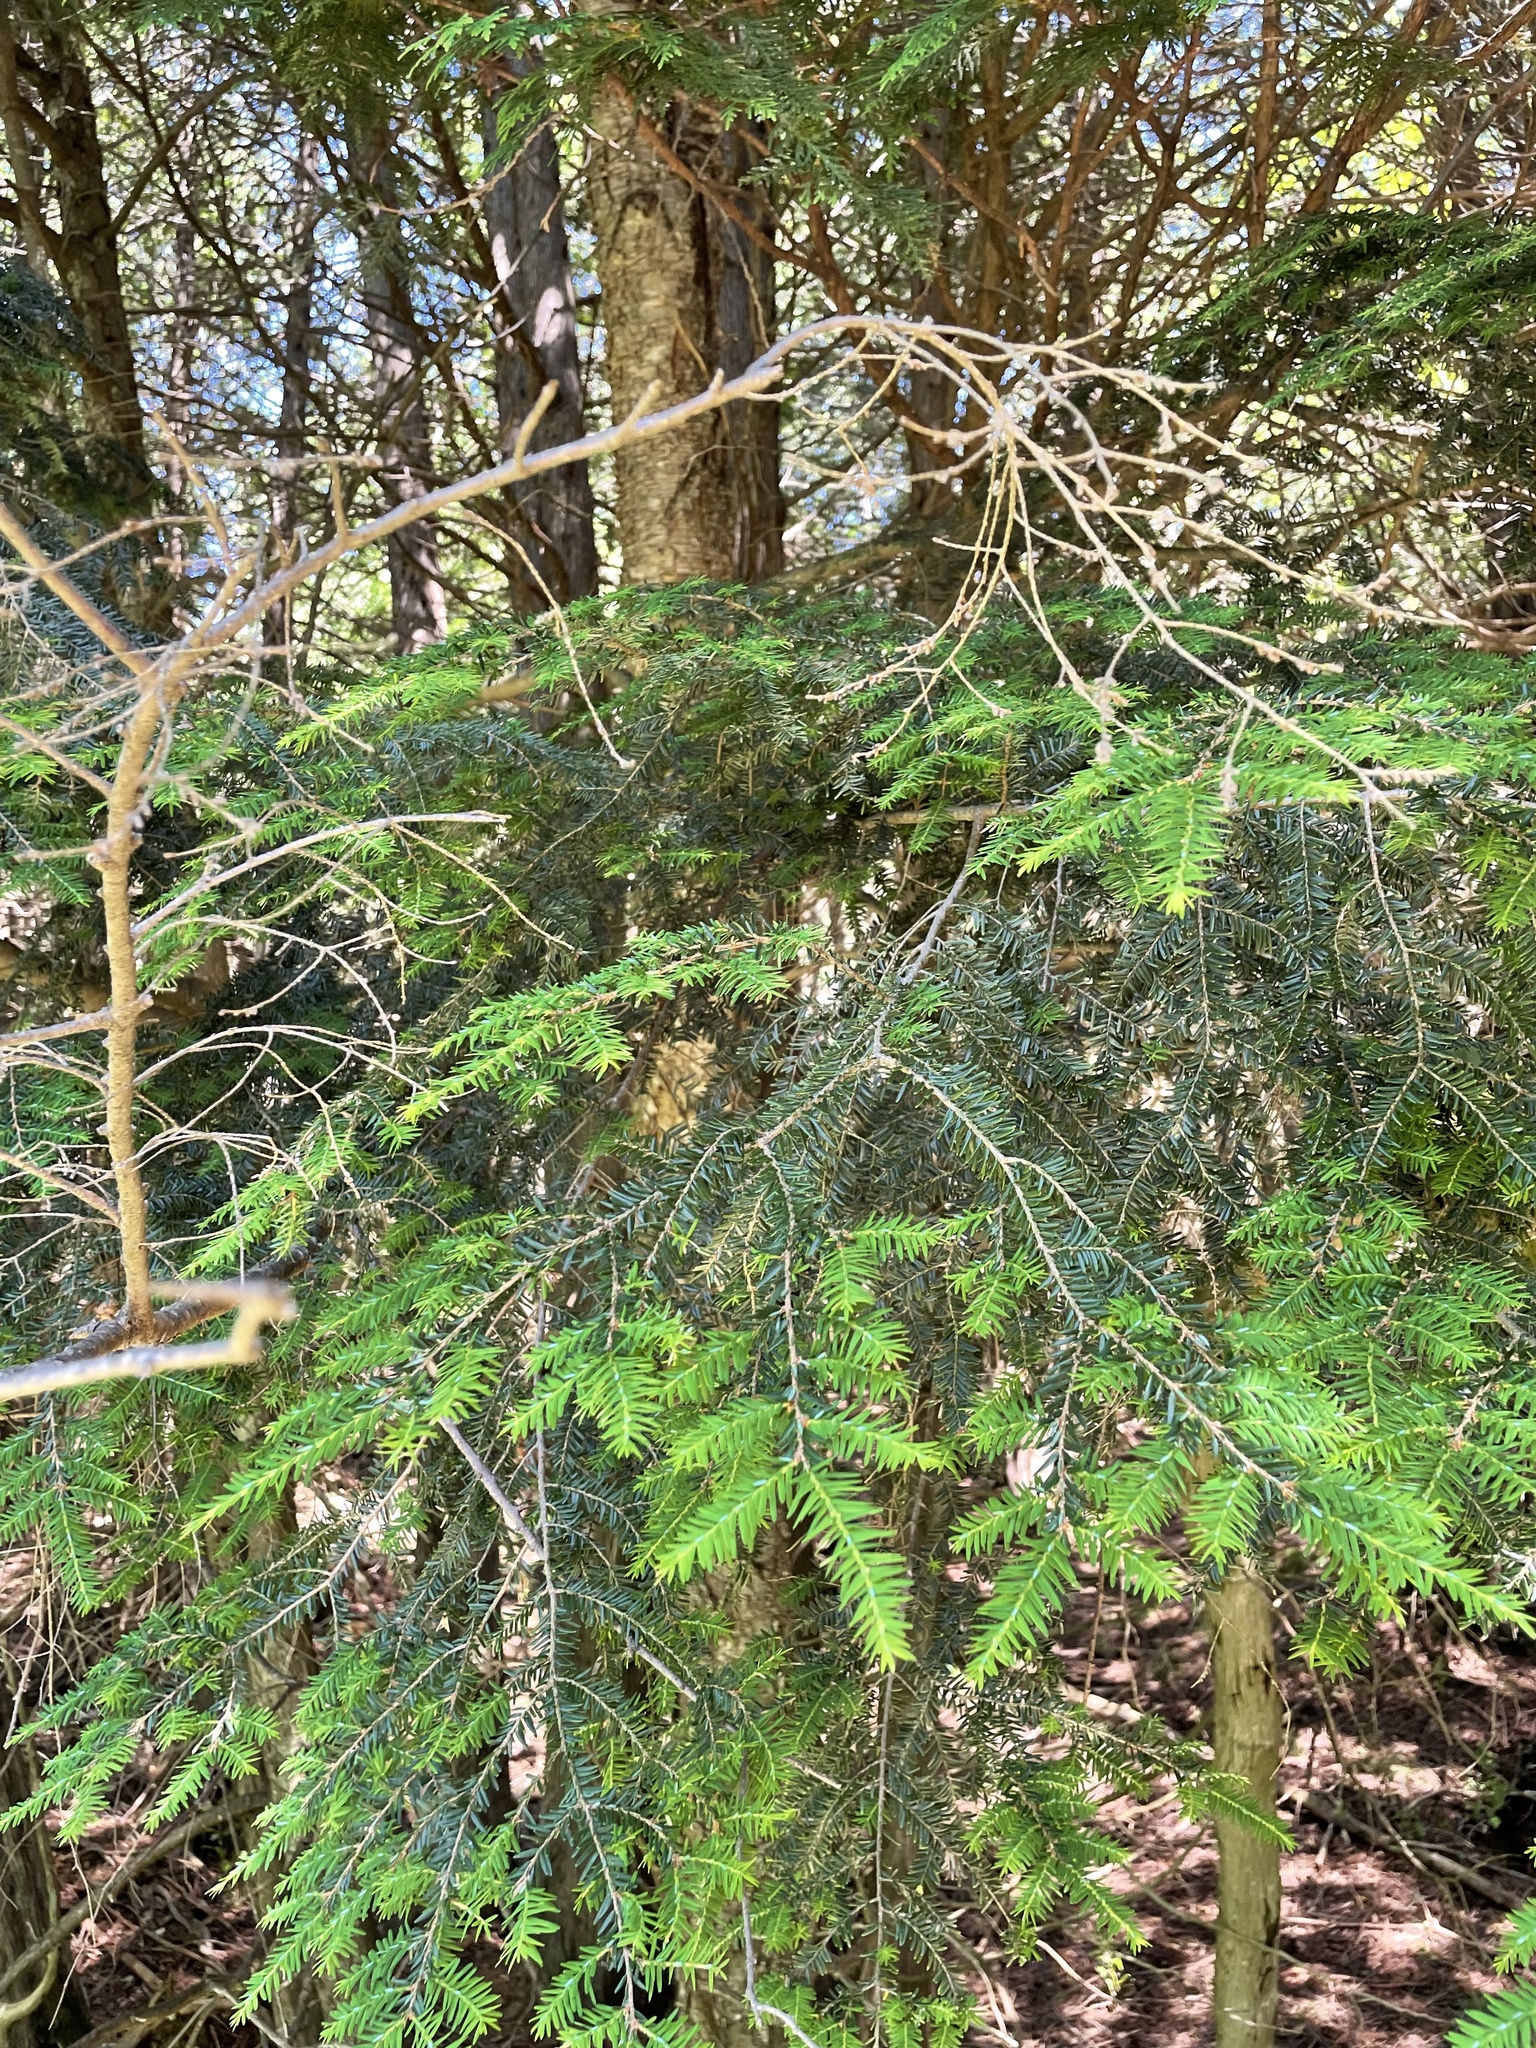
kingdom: Plantae
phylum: Tracheophyta
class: Pinopsida
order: Pinales
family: Pinaceae
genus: Tsuga
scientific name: Tsuga canadensis
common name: Eastern hemlock
